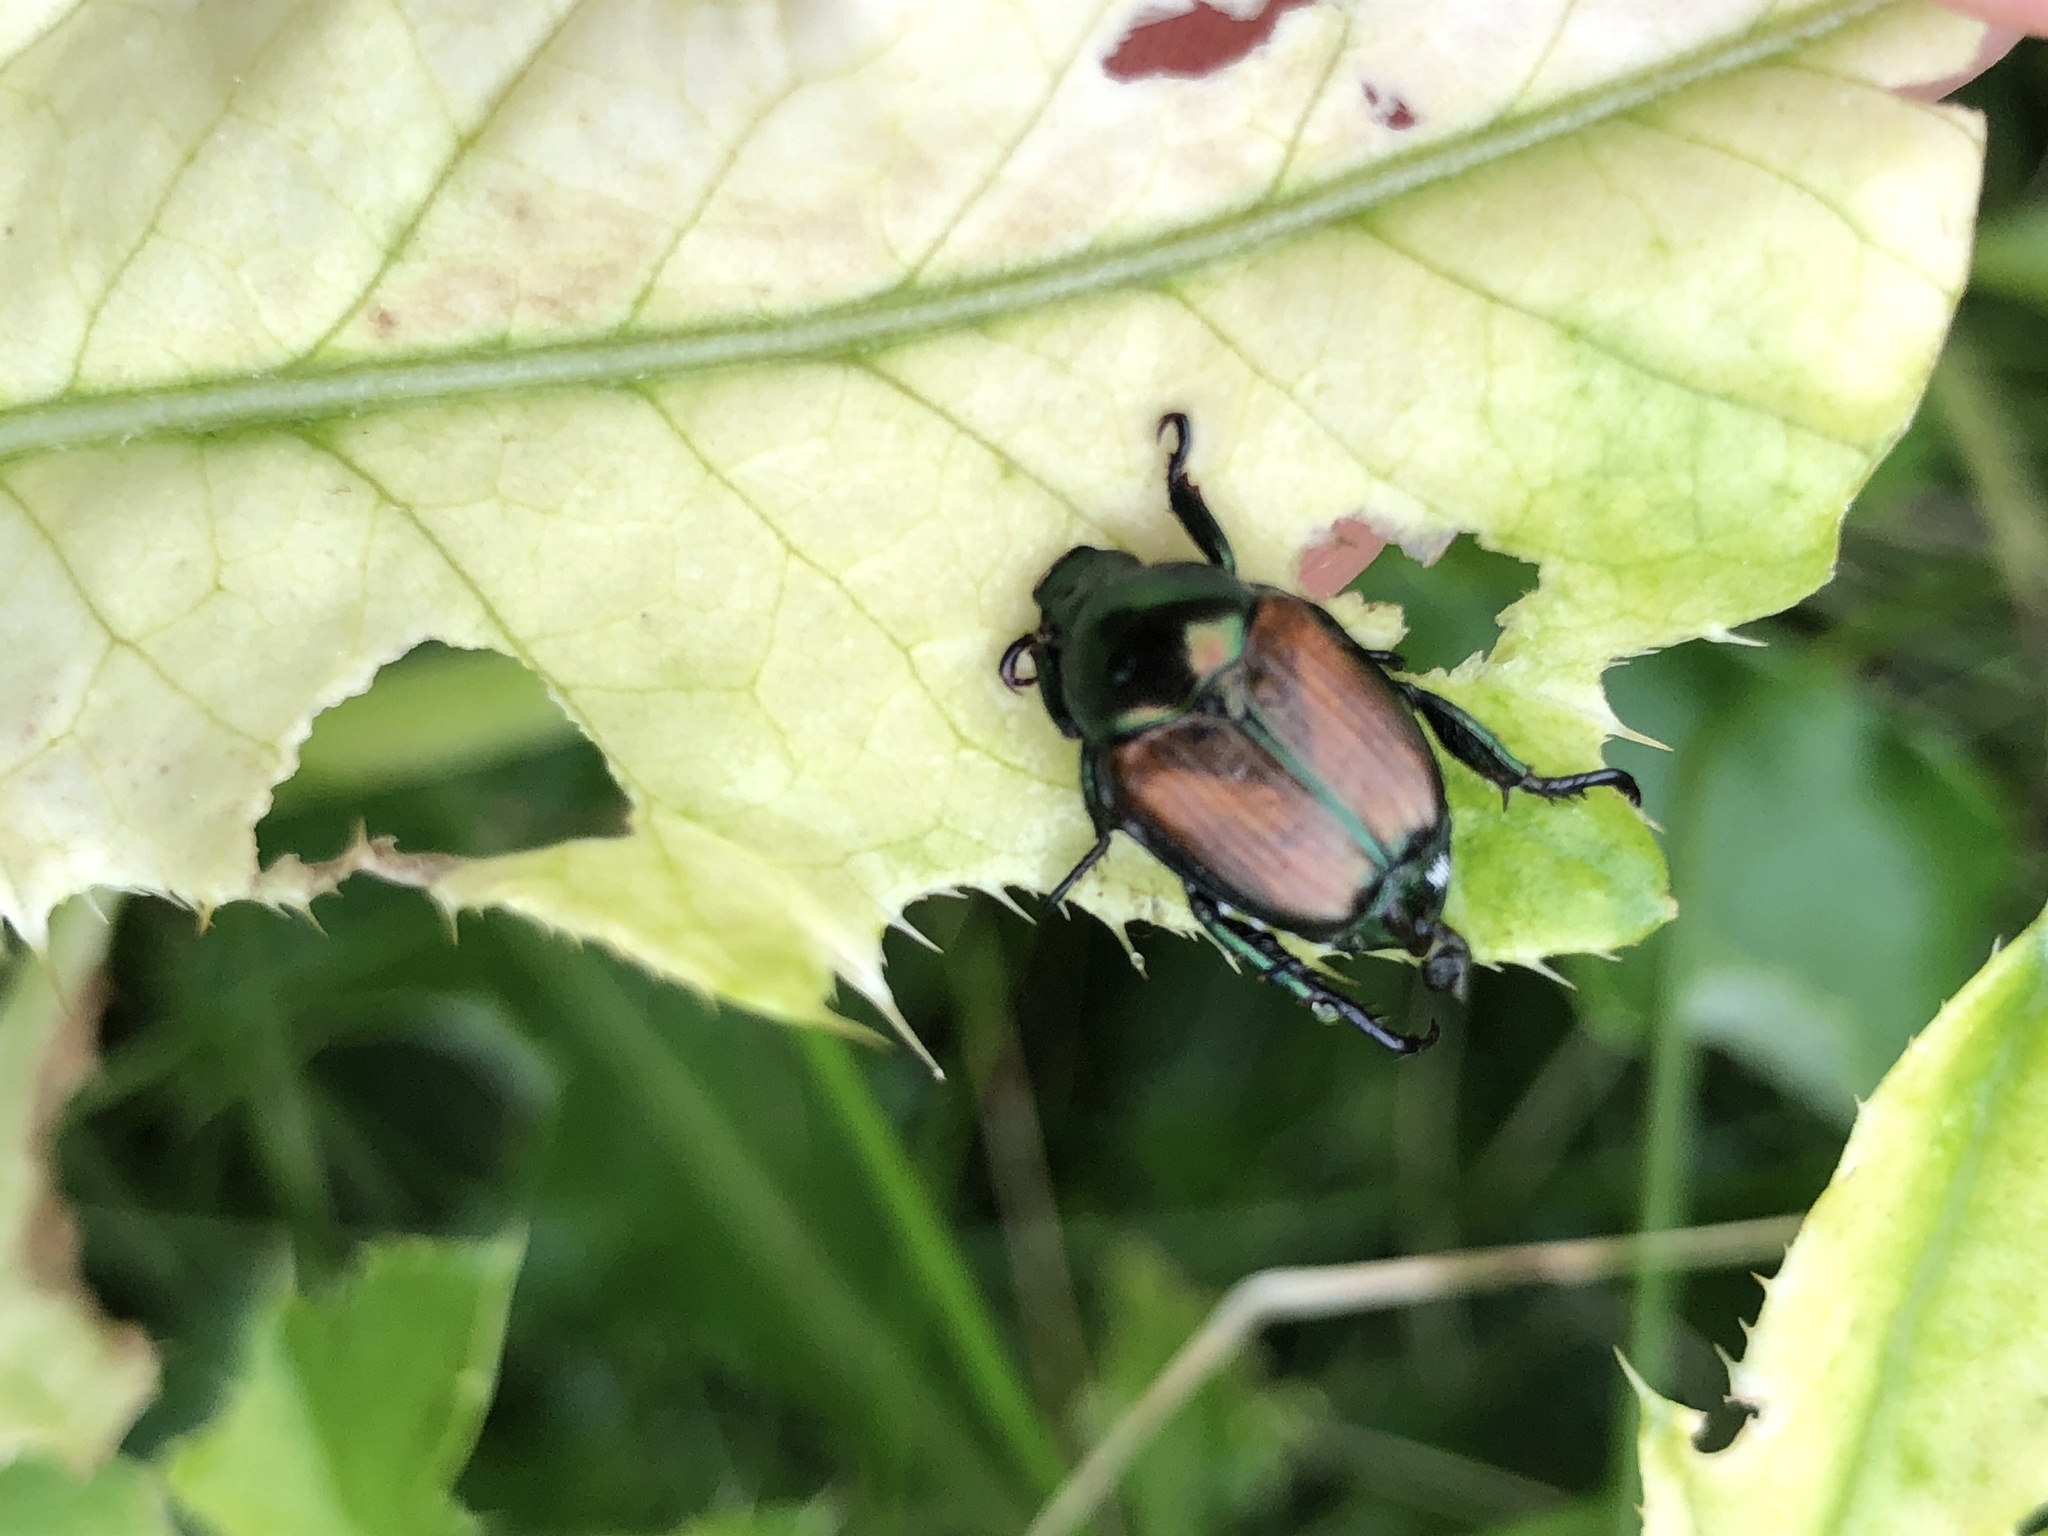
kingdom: Animalia
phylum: Arthropoda
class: Insecta
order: Coleoptera
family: Scarabaeidae
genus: Popillia
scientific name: Popillia japonica
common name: Japanese beetle
